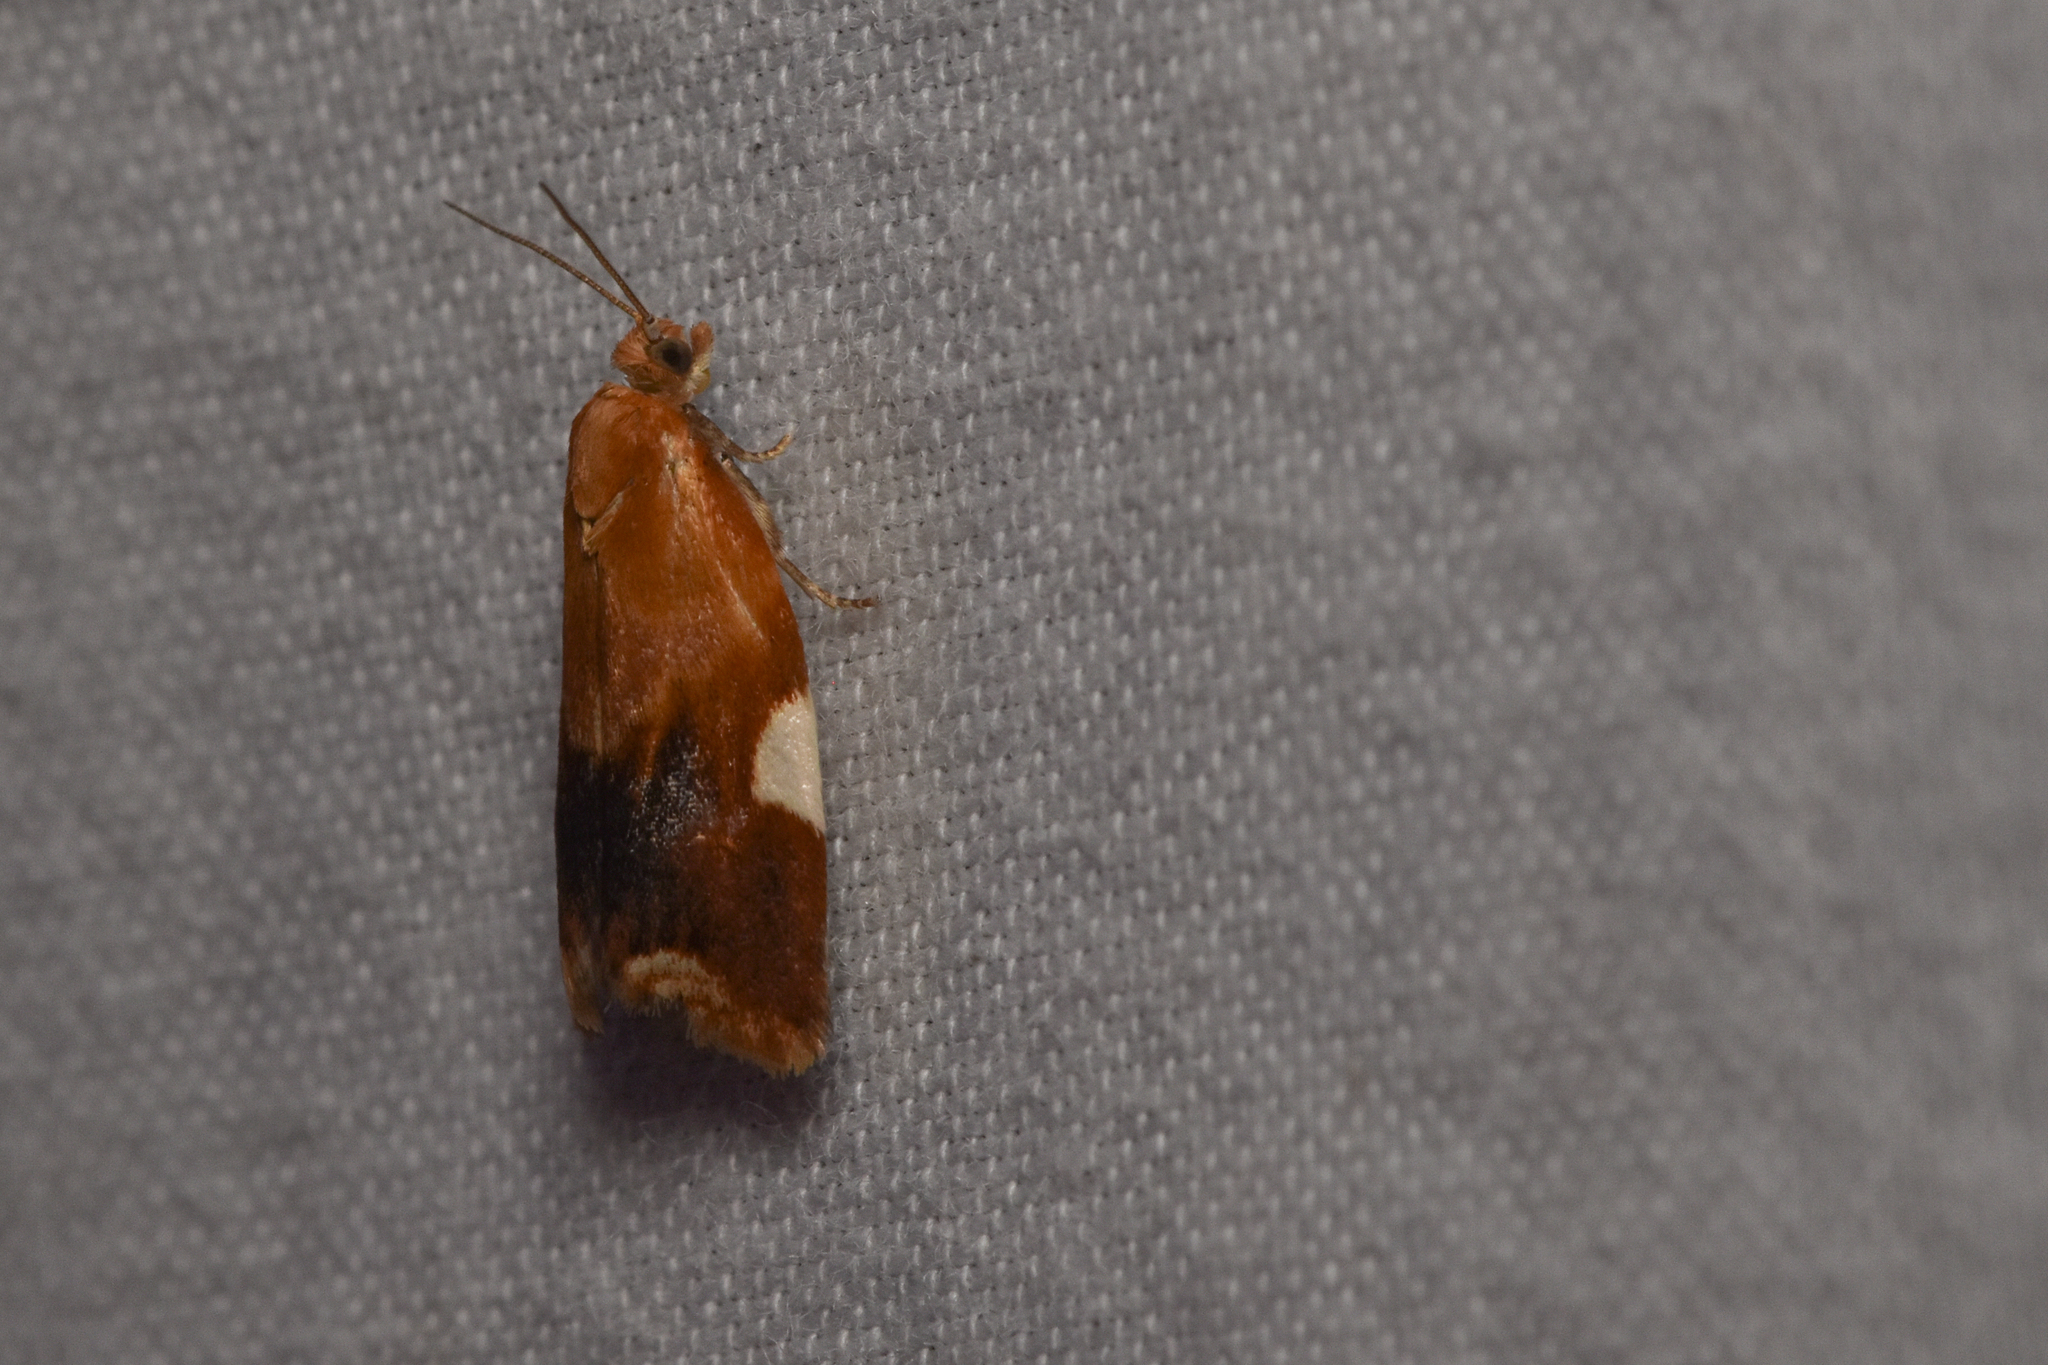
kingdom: Animalia
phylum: Arthropoda
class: Insecta
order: Lepidoptera
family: Tortricidae
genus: Clepsis
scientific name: Clepsis persicana
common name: White triangle tortrix
